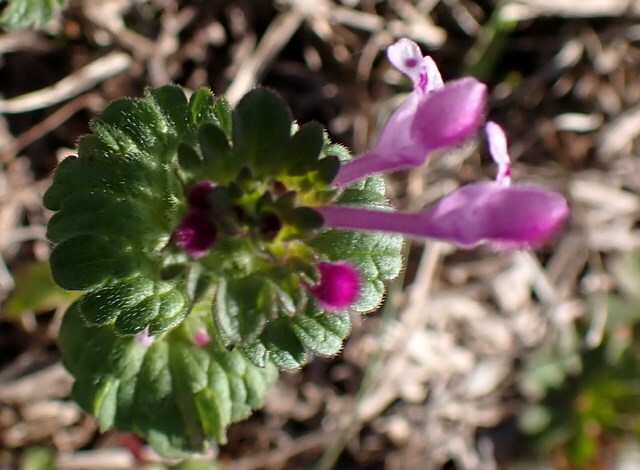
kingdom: Plantae
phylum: Tracheophyta
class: Magnoliopsida
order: Lamiales
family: Lamiaceae
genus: Lamium
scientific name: Lamium amplexicaule
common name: Henbit dead-nettle
